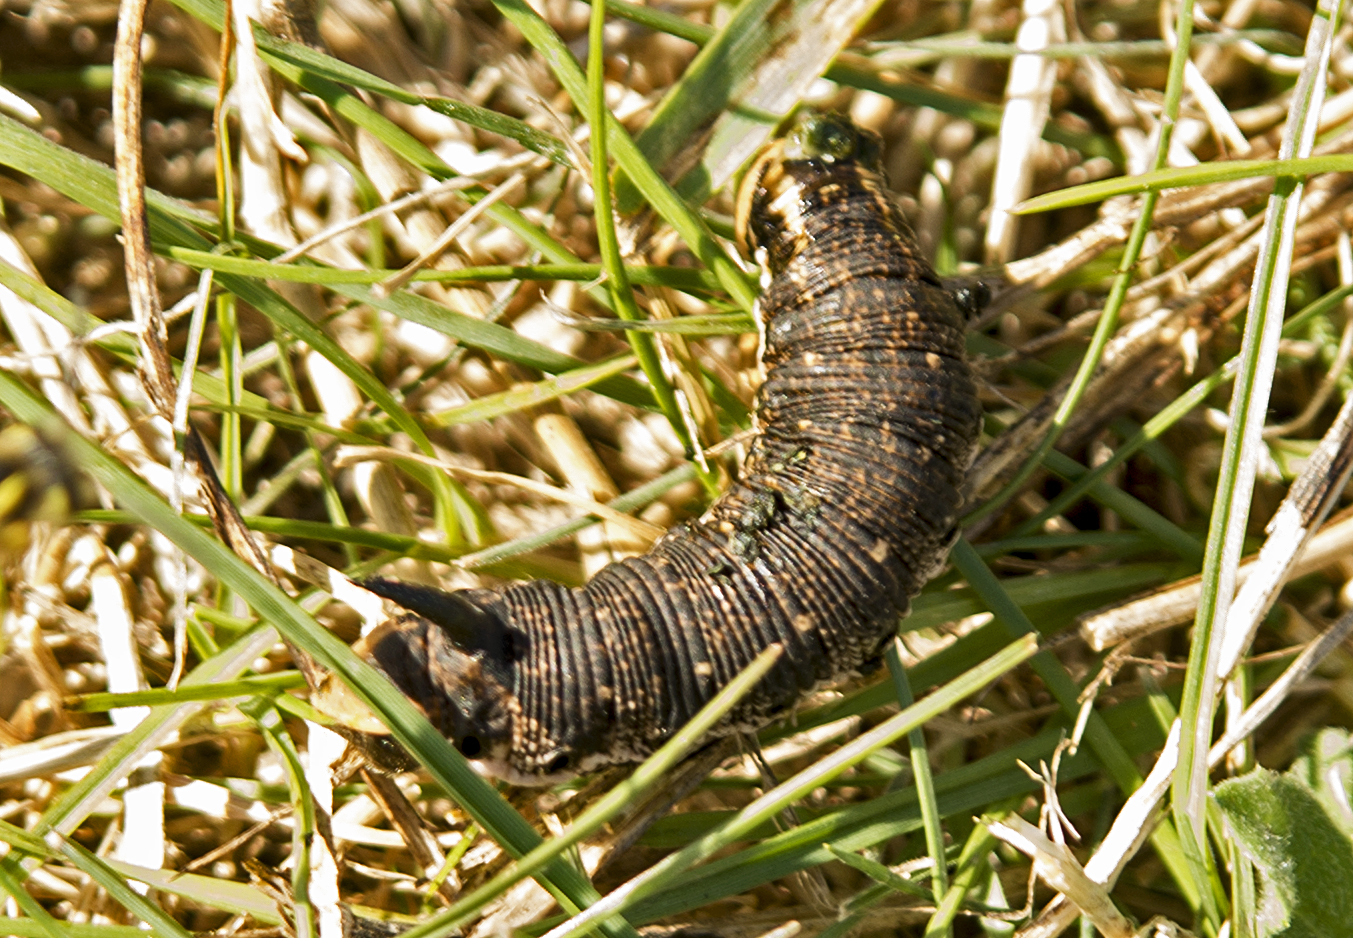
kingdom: Animalia
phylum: Arthropoda
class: Insecta
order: Lepidoptera
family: Sphingidae
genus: Agrius
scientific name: Agrius convolvuli
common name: Convolvulus hawkmoth
